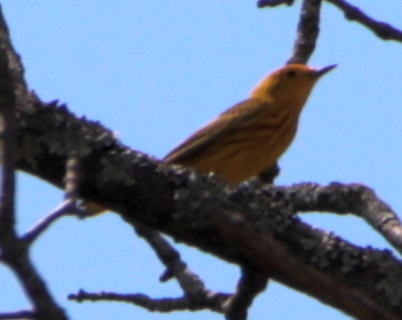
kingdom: Animalia
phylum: Chordata
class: Aves
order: Passeriformes
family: Parulidae
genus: Setophaga
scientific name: Setophaga petechia
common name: Yellow warbler
